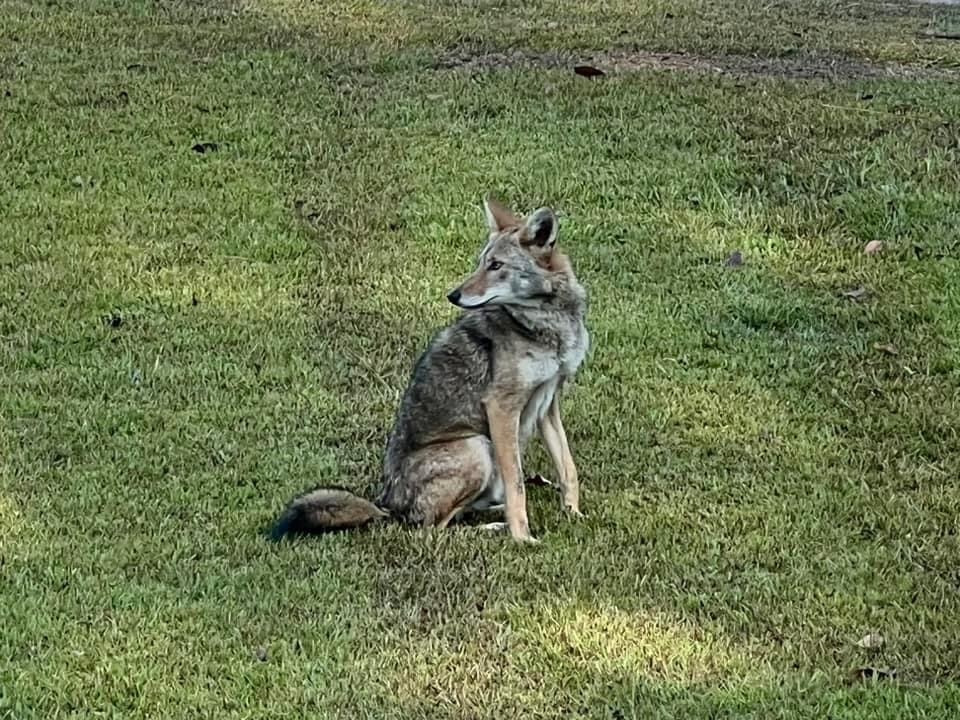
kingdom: Animalia
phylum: Chordata
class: Mammalia
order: Carnivora
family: Canidae
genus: Canis
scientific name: Canis latrans
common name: Coyote
